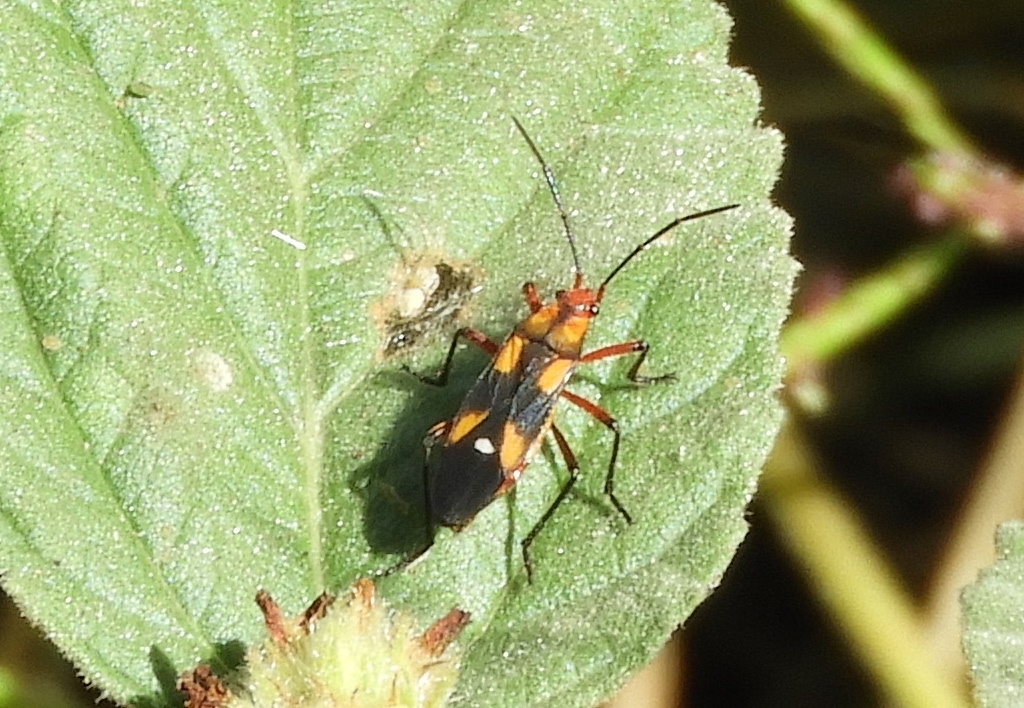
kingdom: Animalia
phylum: Arthropoda
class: Insecta
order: Hemiptera
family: Lygaeidae
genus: Oncopeltus
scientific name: Oncopeltus guttaloides
